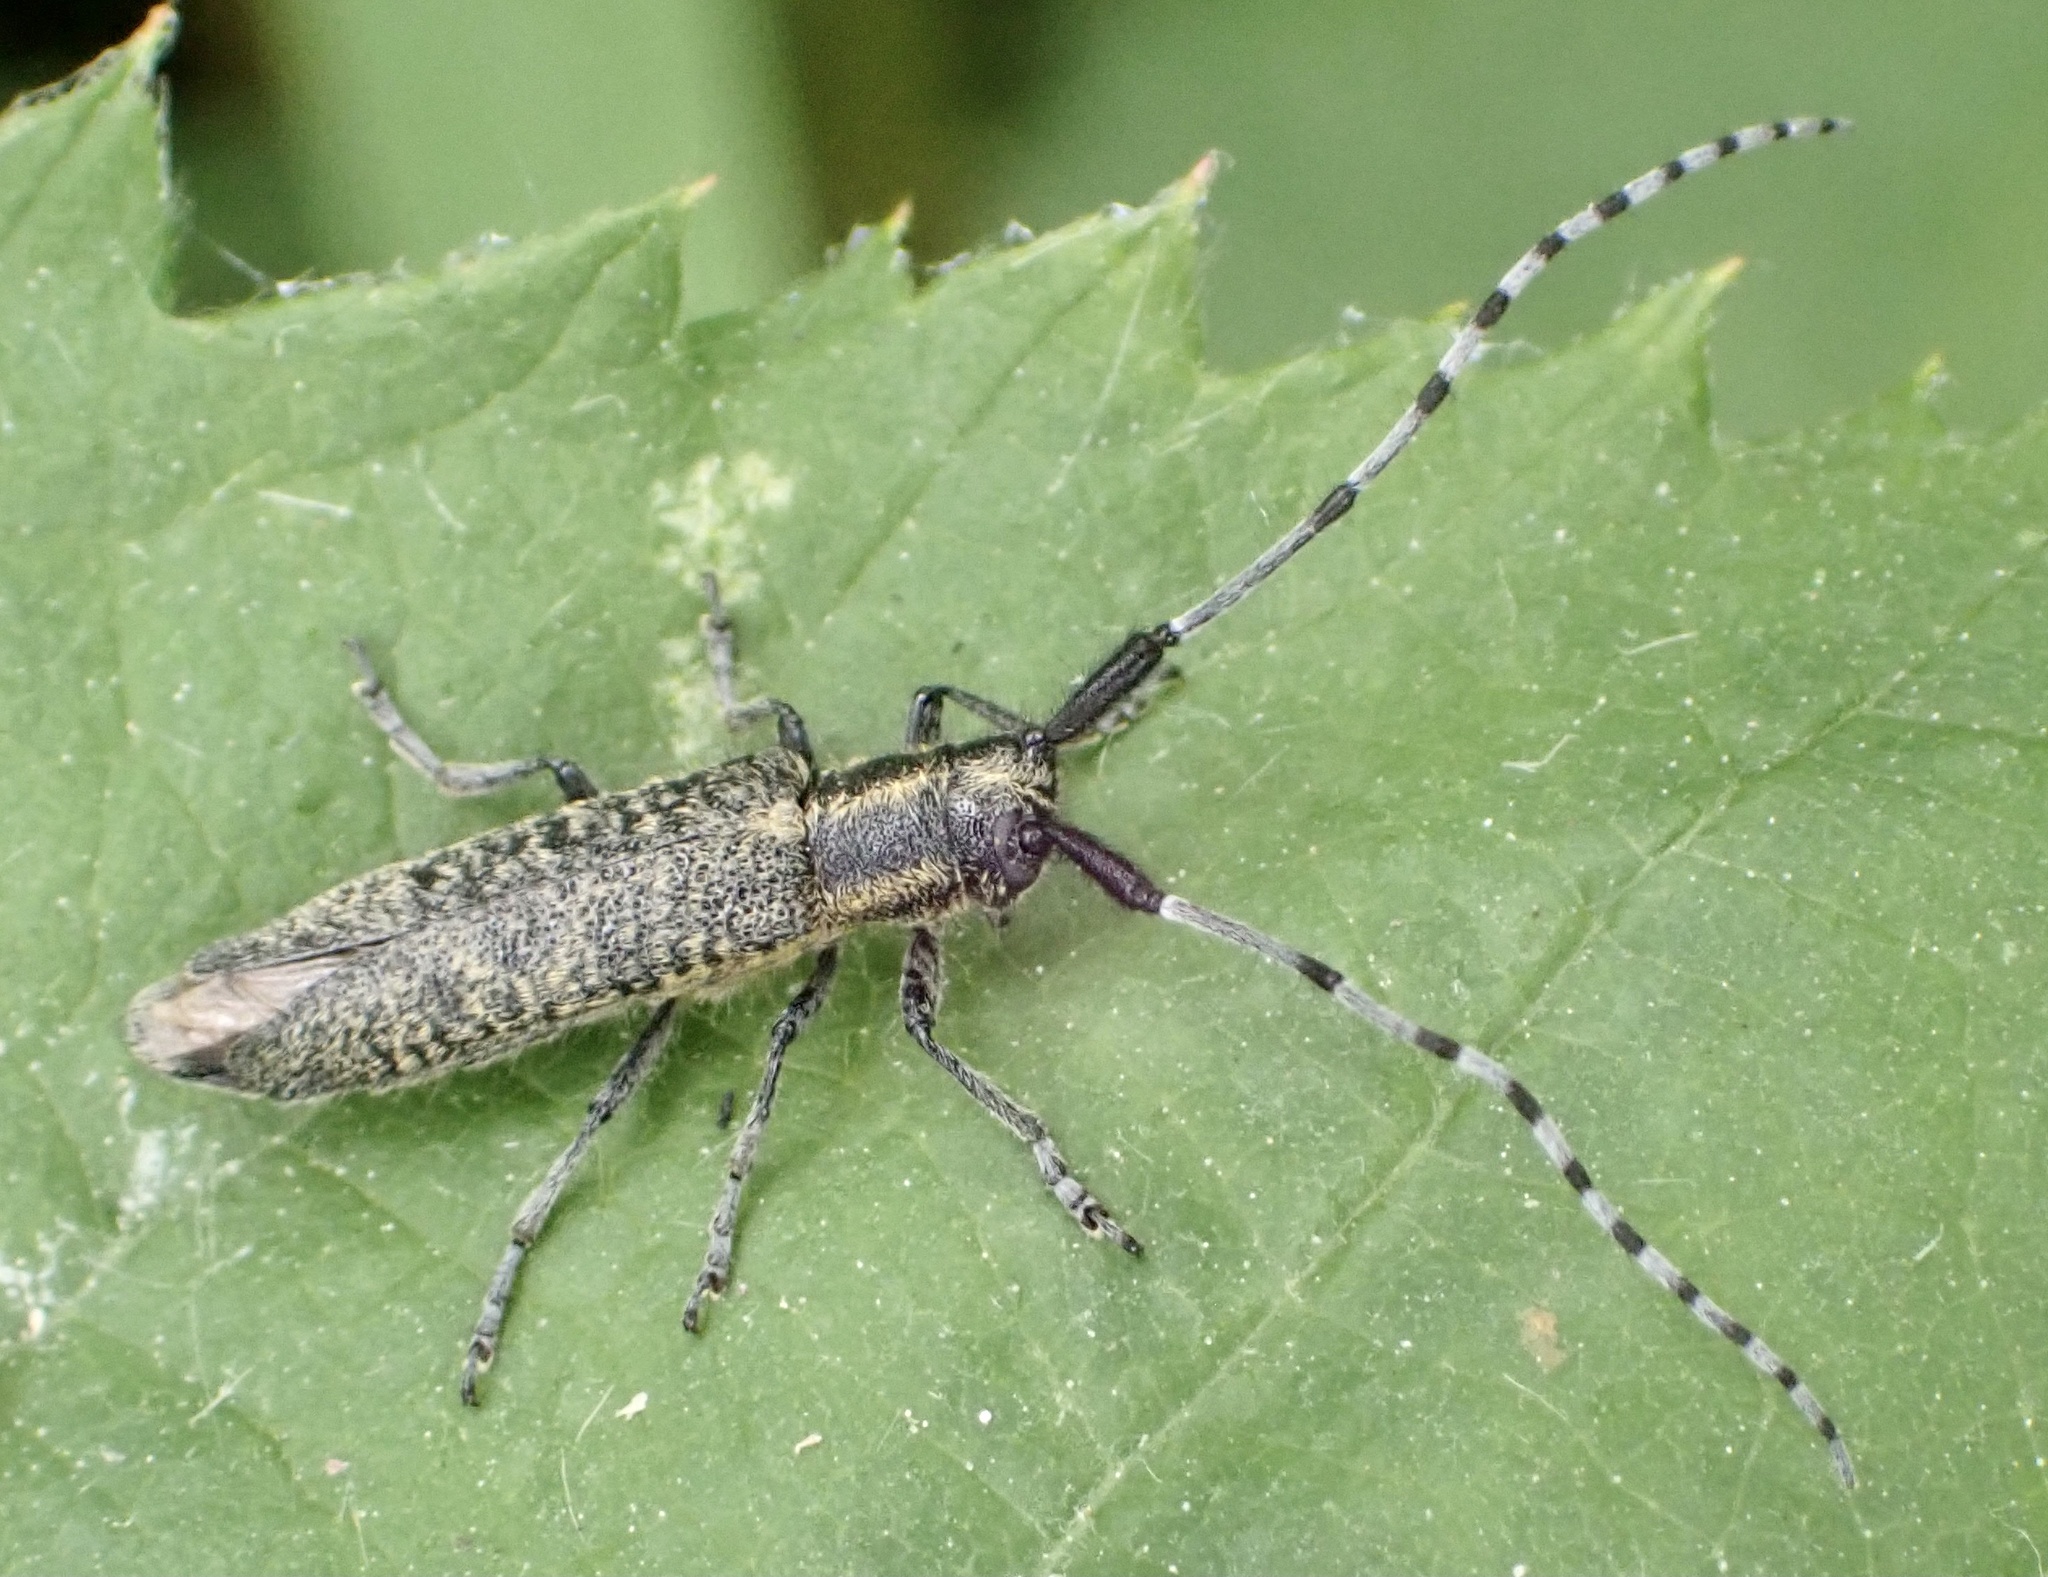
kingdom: Animalia
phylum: Arthropoda
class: Insecta
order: Coleoptera
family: Cerambycidae
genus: Agapanthia
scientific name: Agapanthia villosoviridescens
